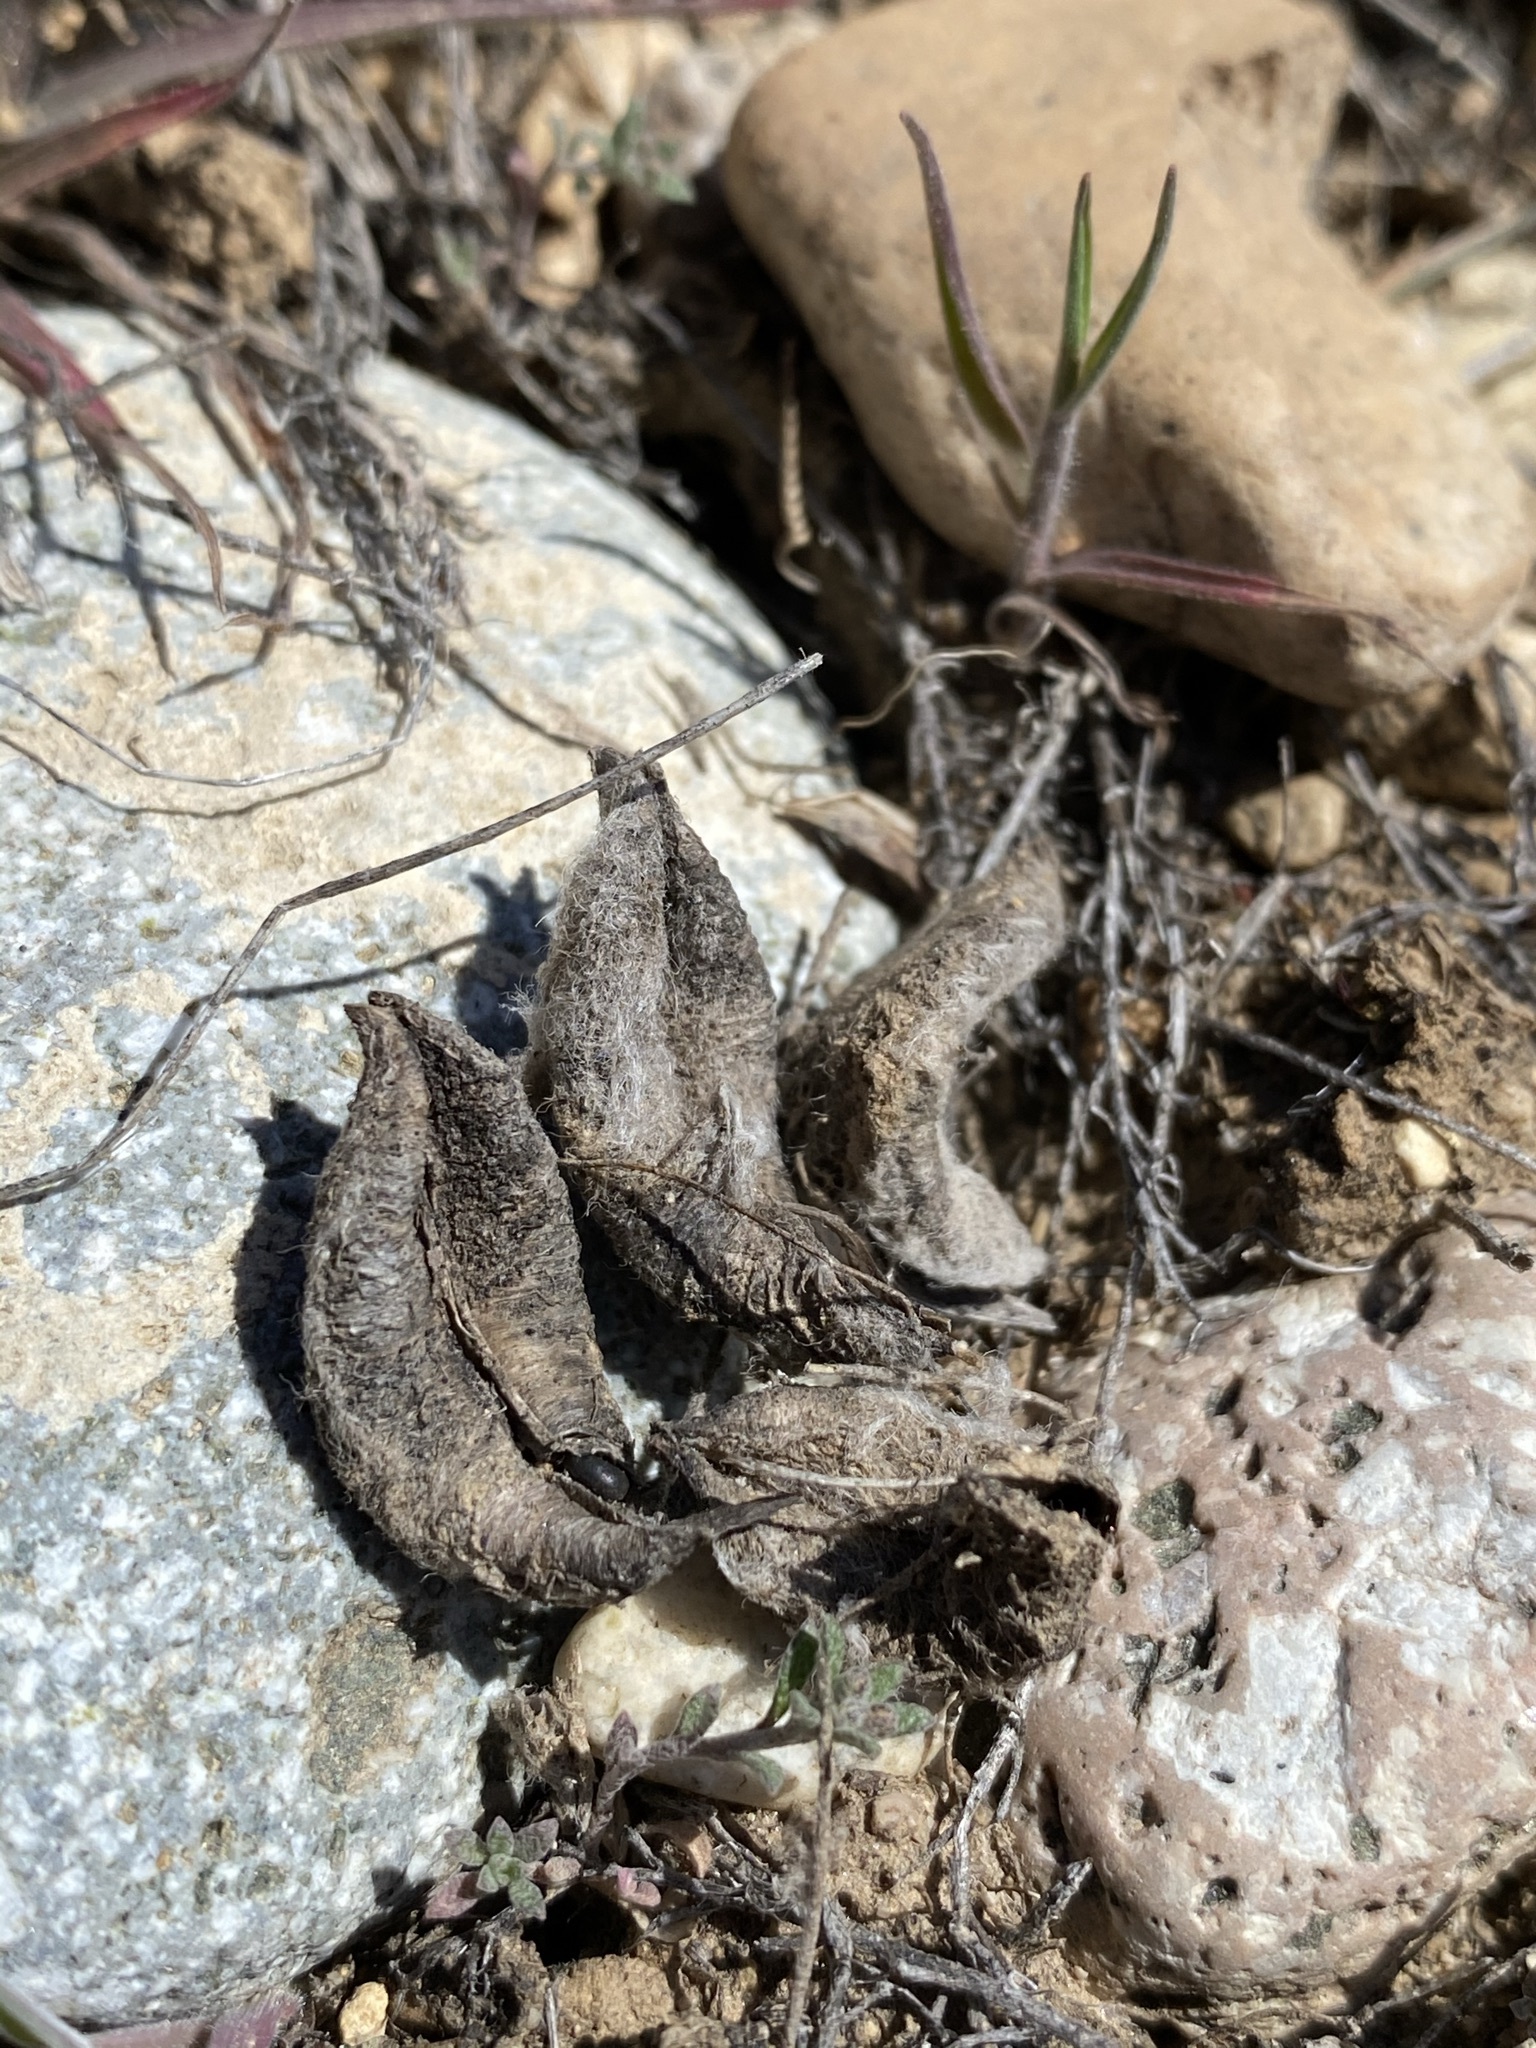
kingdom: Plantae
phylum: Tracheophyta
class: Magnoliopsida
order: Fabales
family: Fabaceae
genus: Astragalus
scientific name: Astragalus purshii
